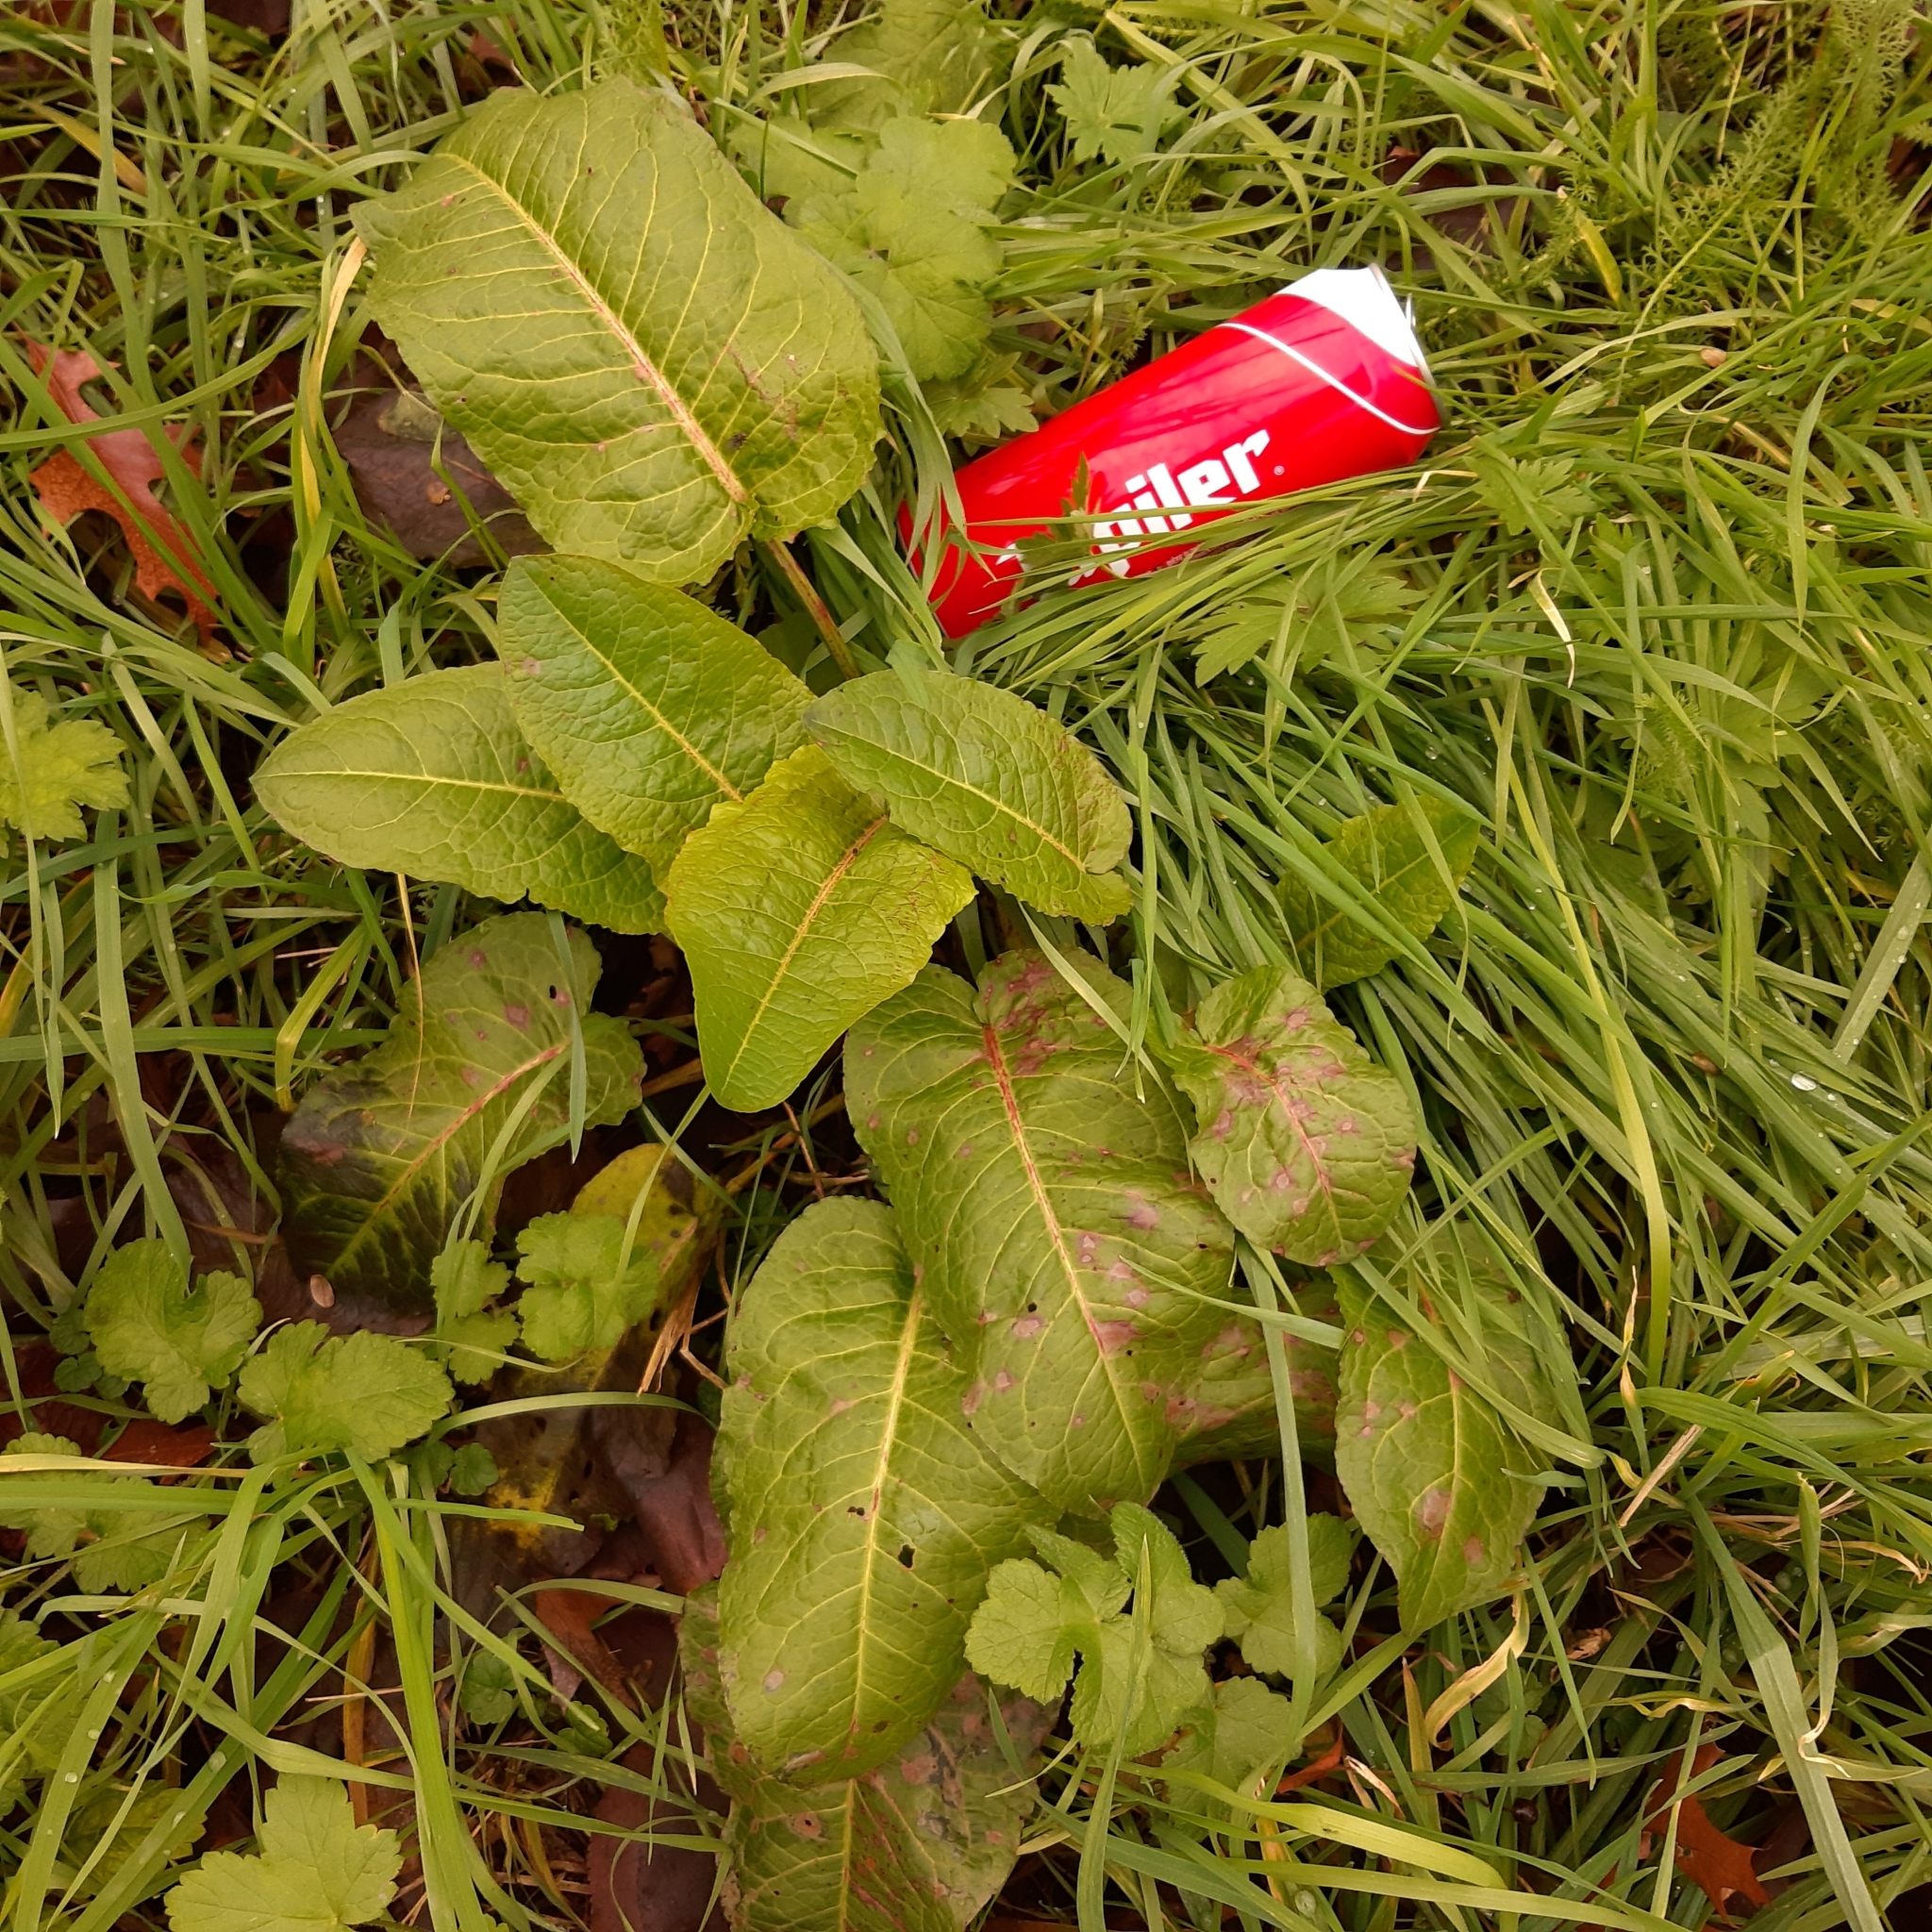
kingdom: Plantae
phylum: Tracheophyta
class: Magnoliopsida
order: Caryophyllales
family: Polygonaceae
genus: Rumex
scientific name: Rumex obtusifolius
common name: Bitter dock
